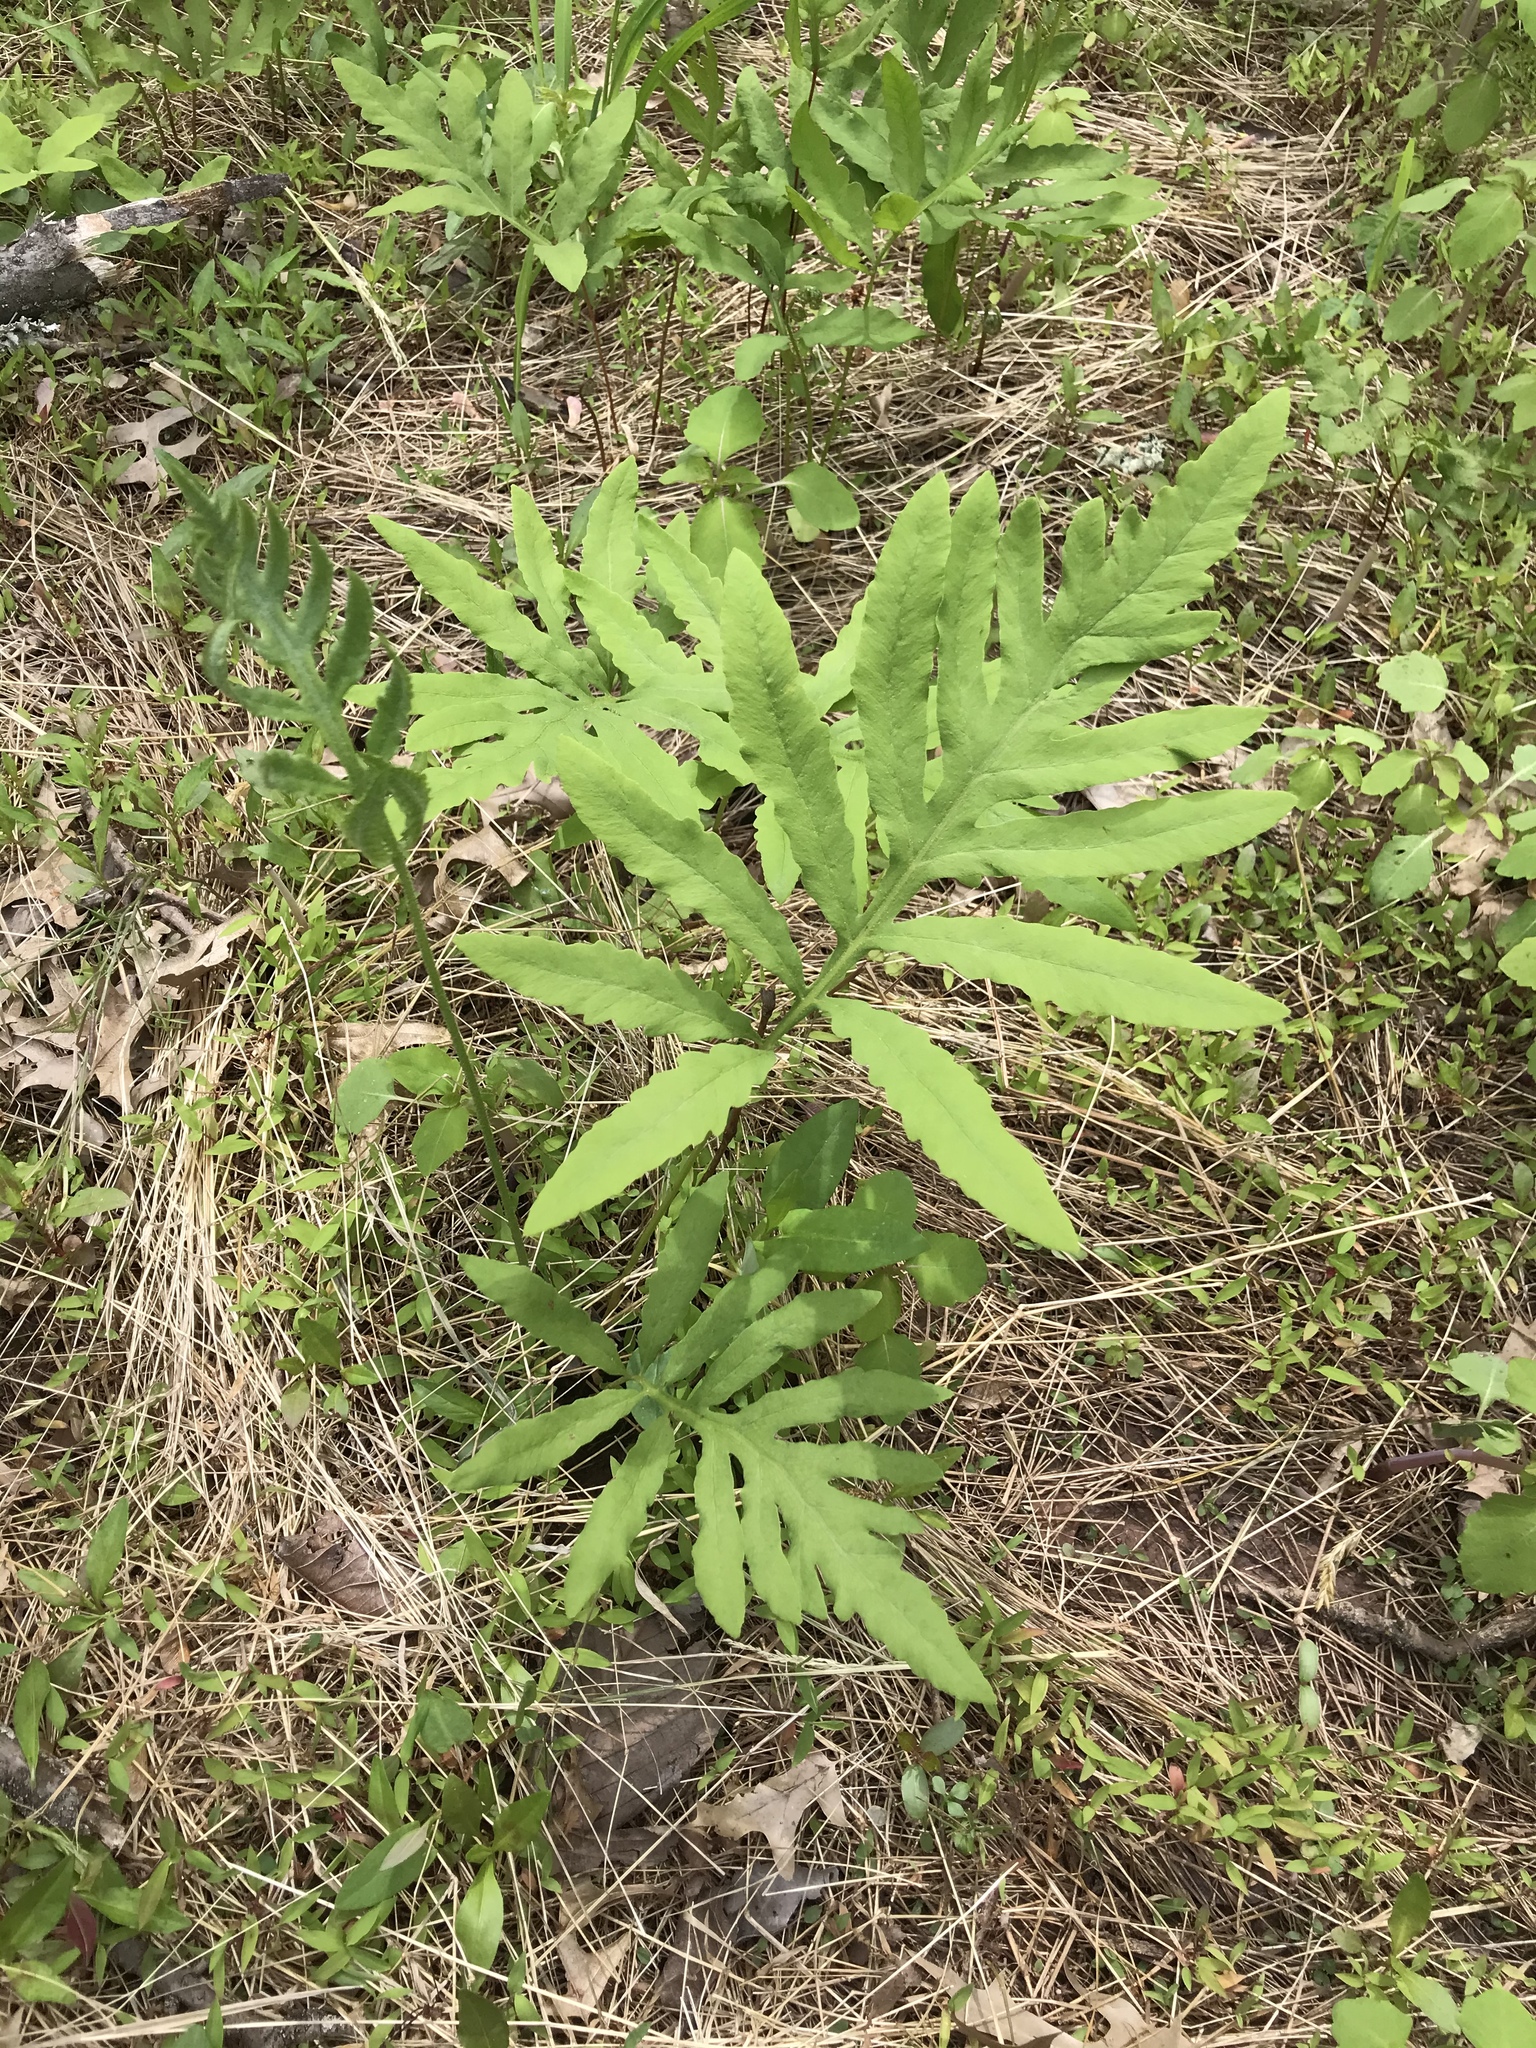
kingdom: Plantae
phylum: Tracheophyta
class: Polypodiopsida
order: Polypodiales
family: Onocleaceae
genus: Onoclea
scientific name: Onoclea sensibilis
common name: Sensitive fern
